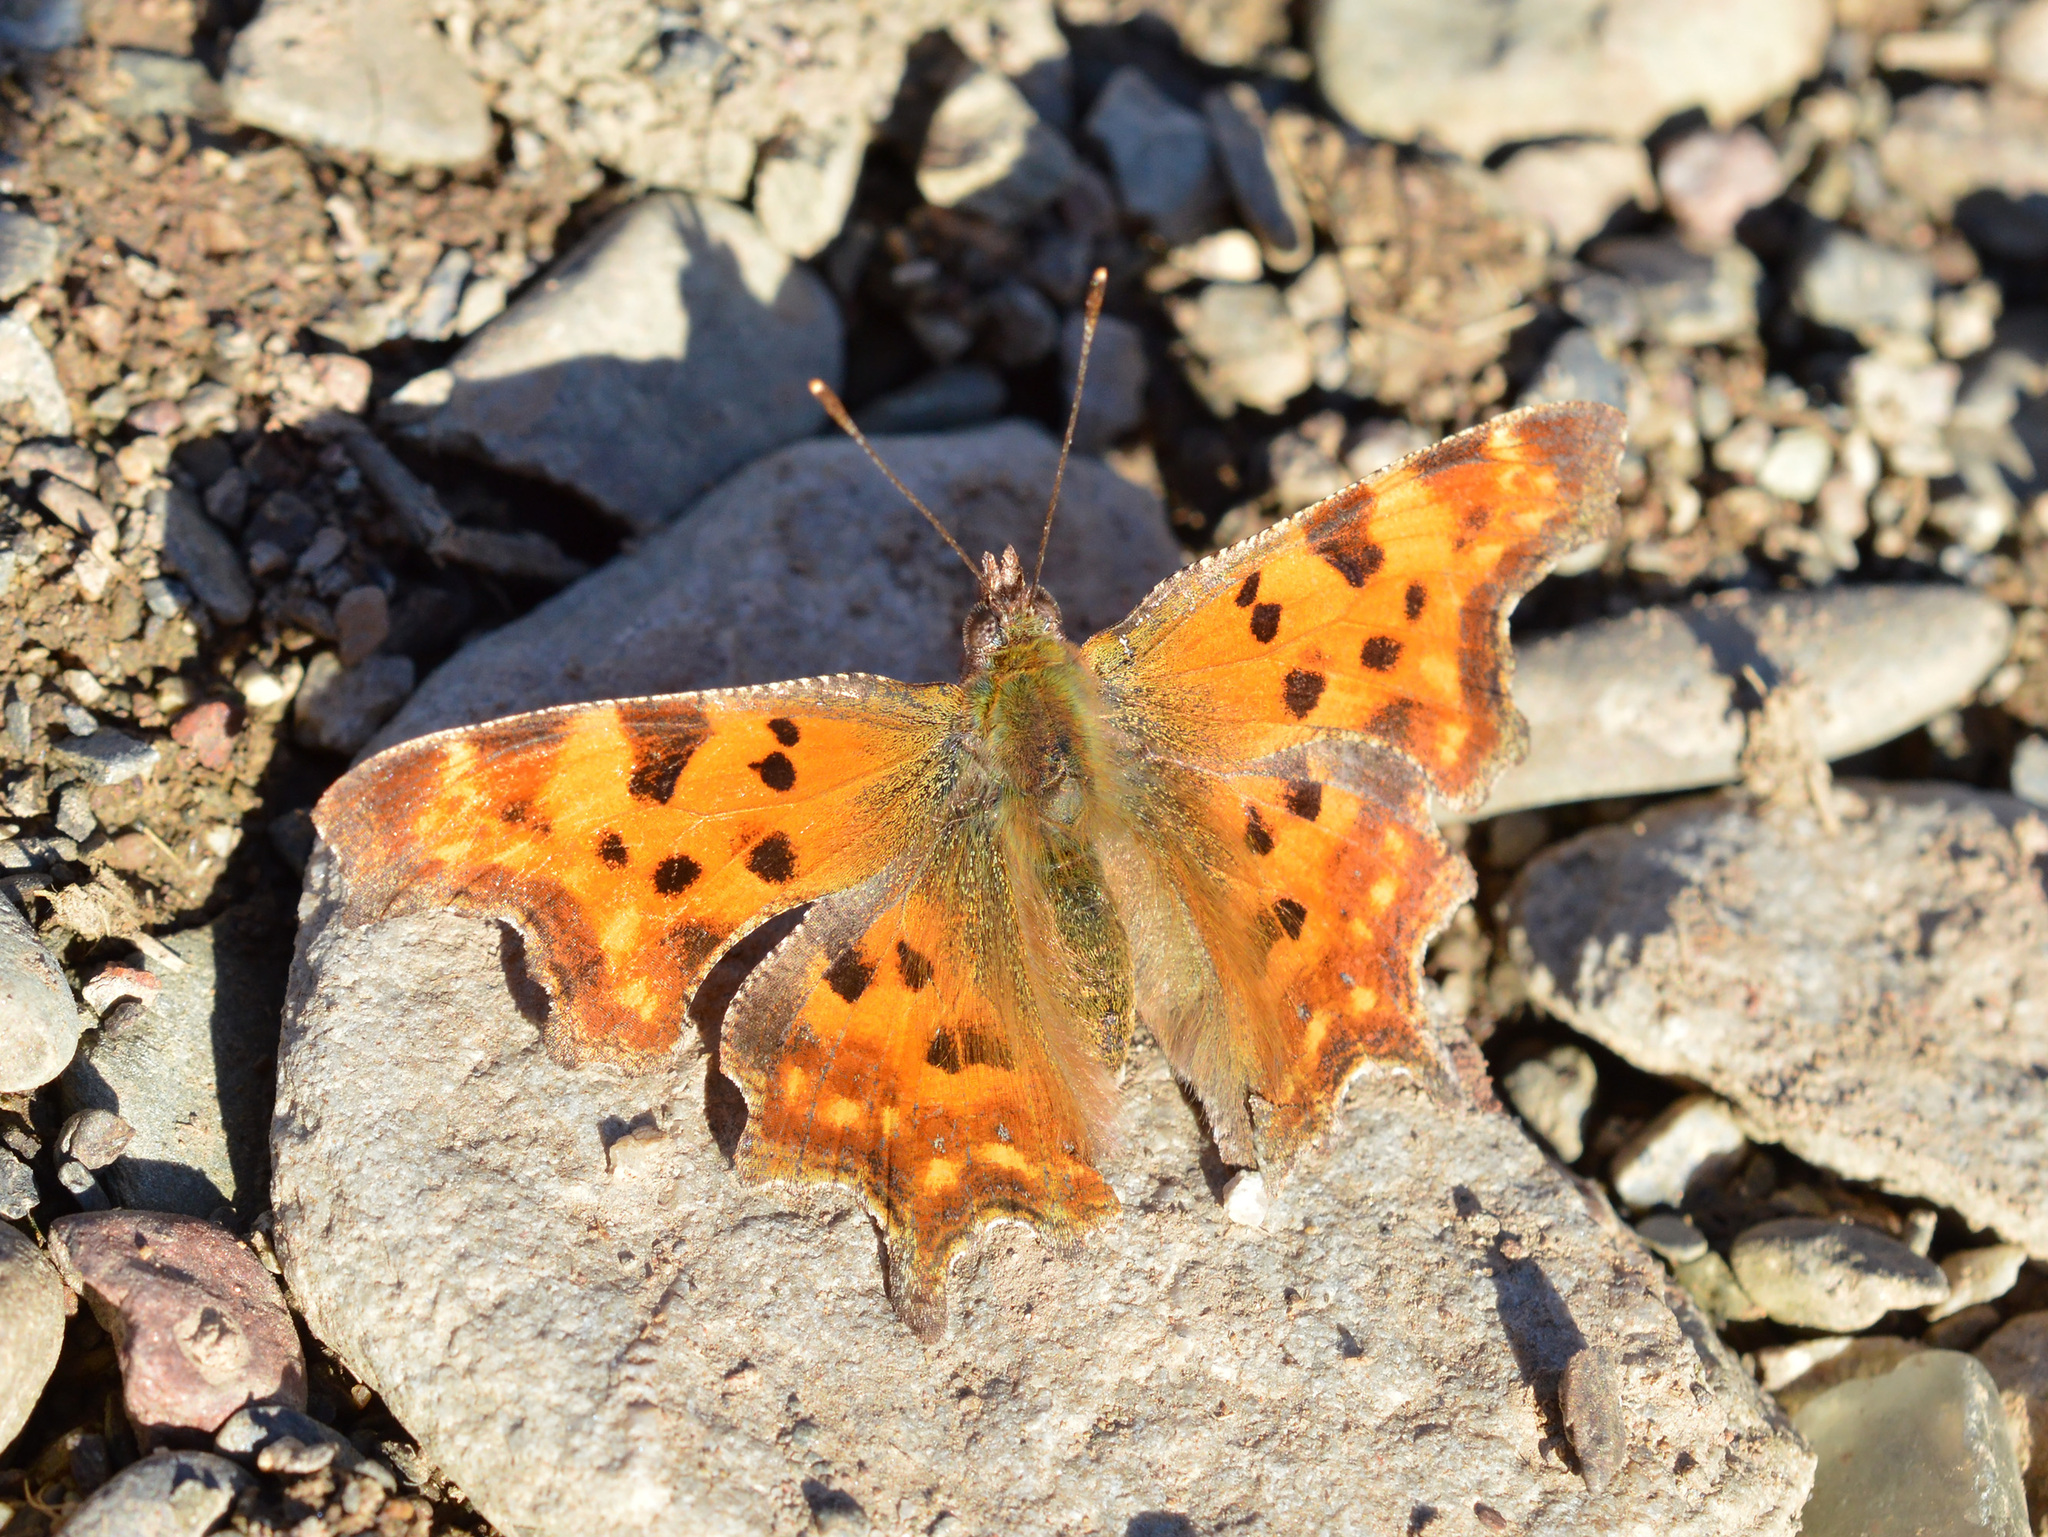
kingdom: Animalia
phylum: Arthropoda
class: Insecta
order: Lepidoptera
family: Nymphalidae
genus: Polygonia
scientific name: Polygonia c-album
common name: Comma
